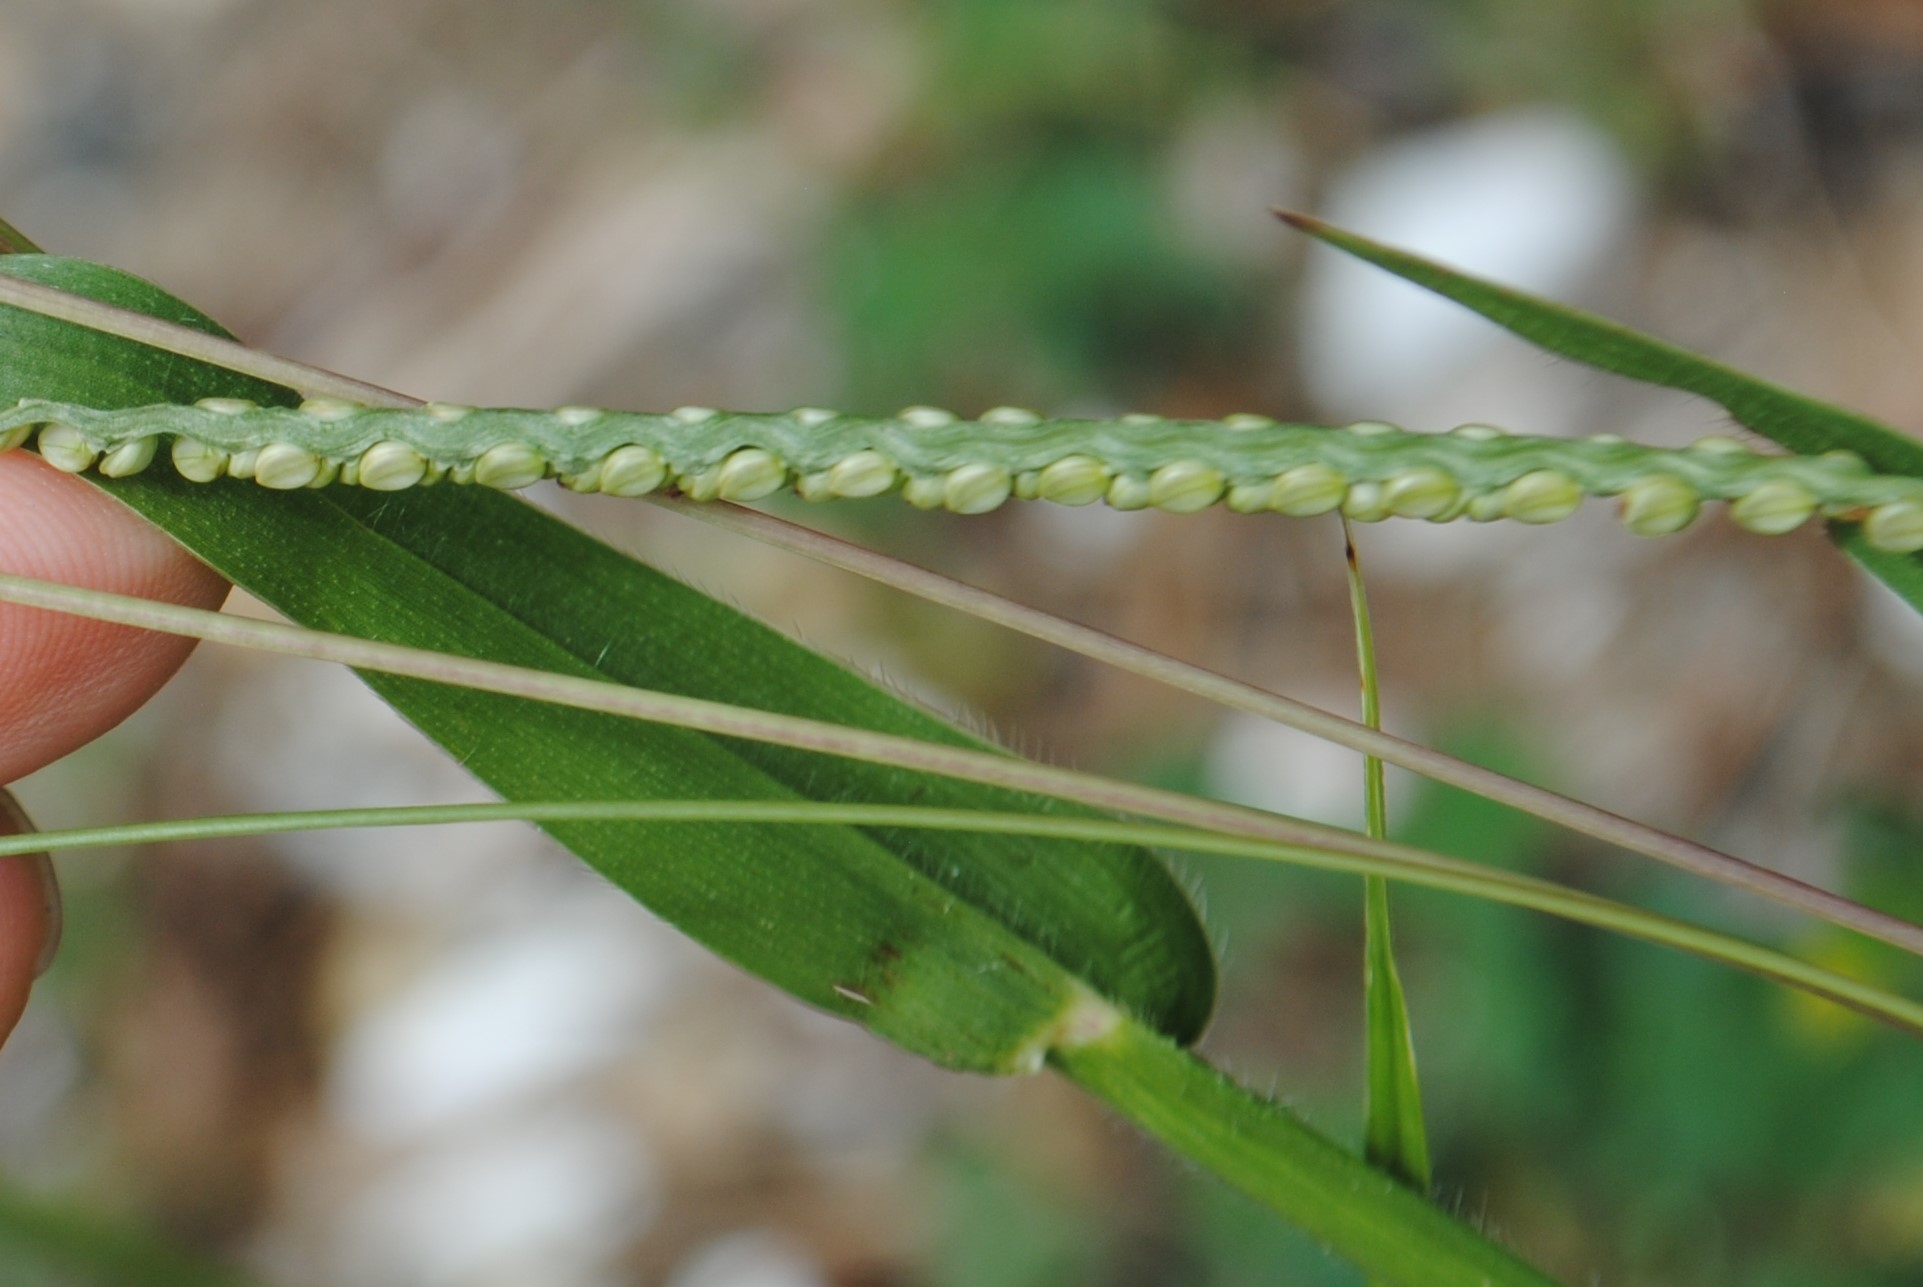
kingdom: Plantae
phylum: Tracheophyta
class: Liliopsida
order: Poales
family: Poaceae
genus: Paspalum
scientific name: Paspalum setaceum
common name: Slender paspalum
